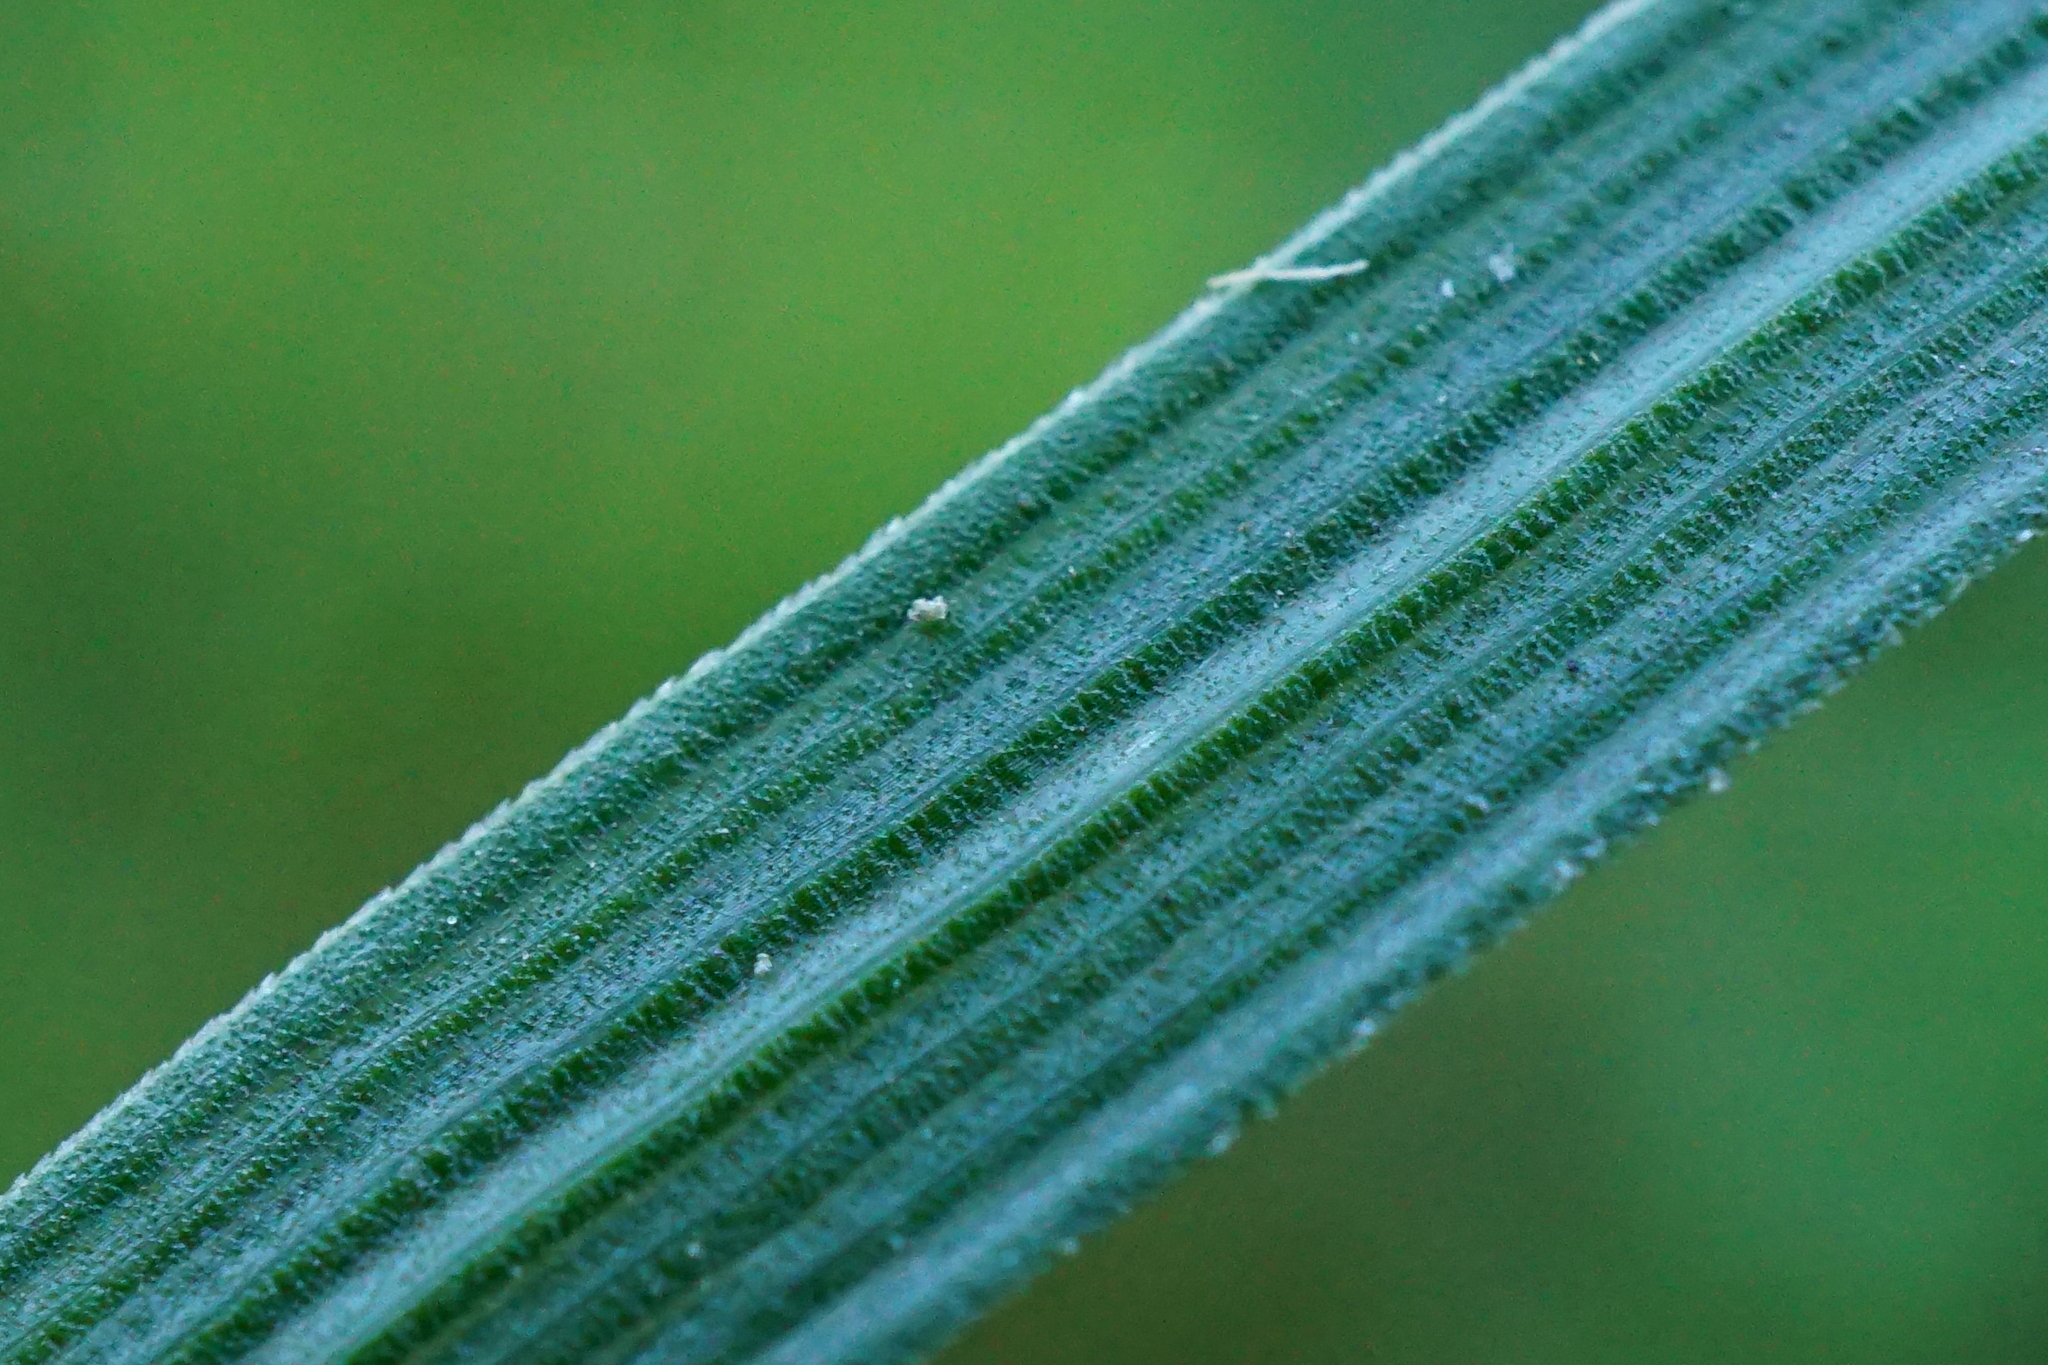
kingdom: Plantae
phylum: Tracheophyta
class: Liliopsida
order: Poales
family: Poaceae
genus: Deschampsia
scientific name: Deschampsia cespitosa
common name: Tufted hair-grass
